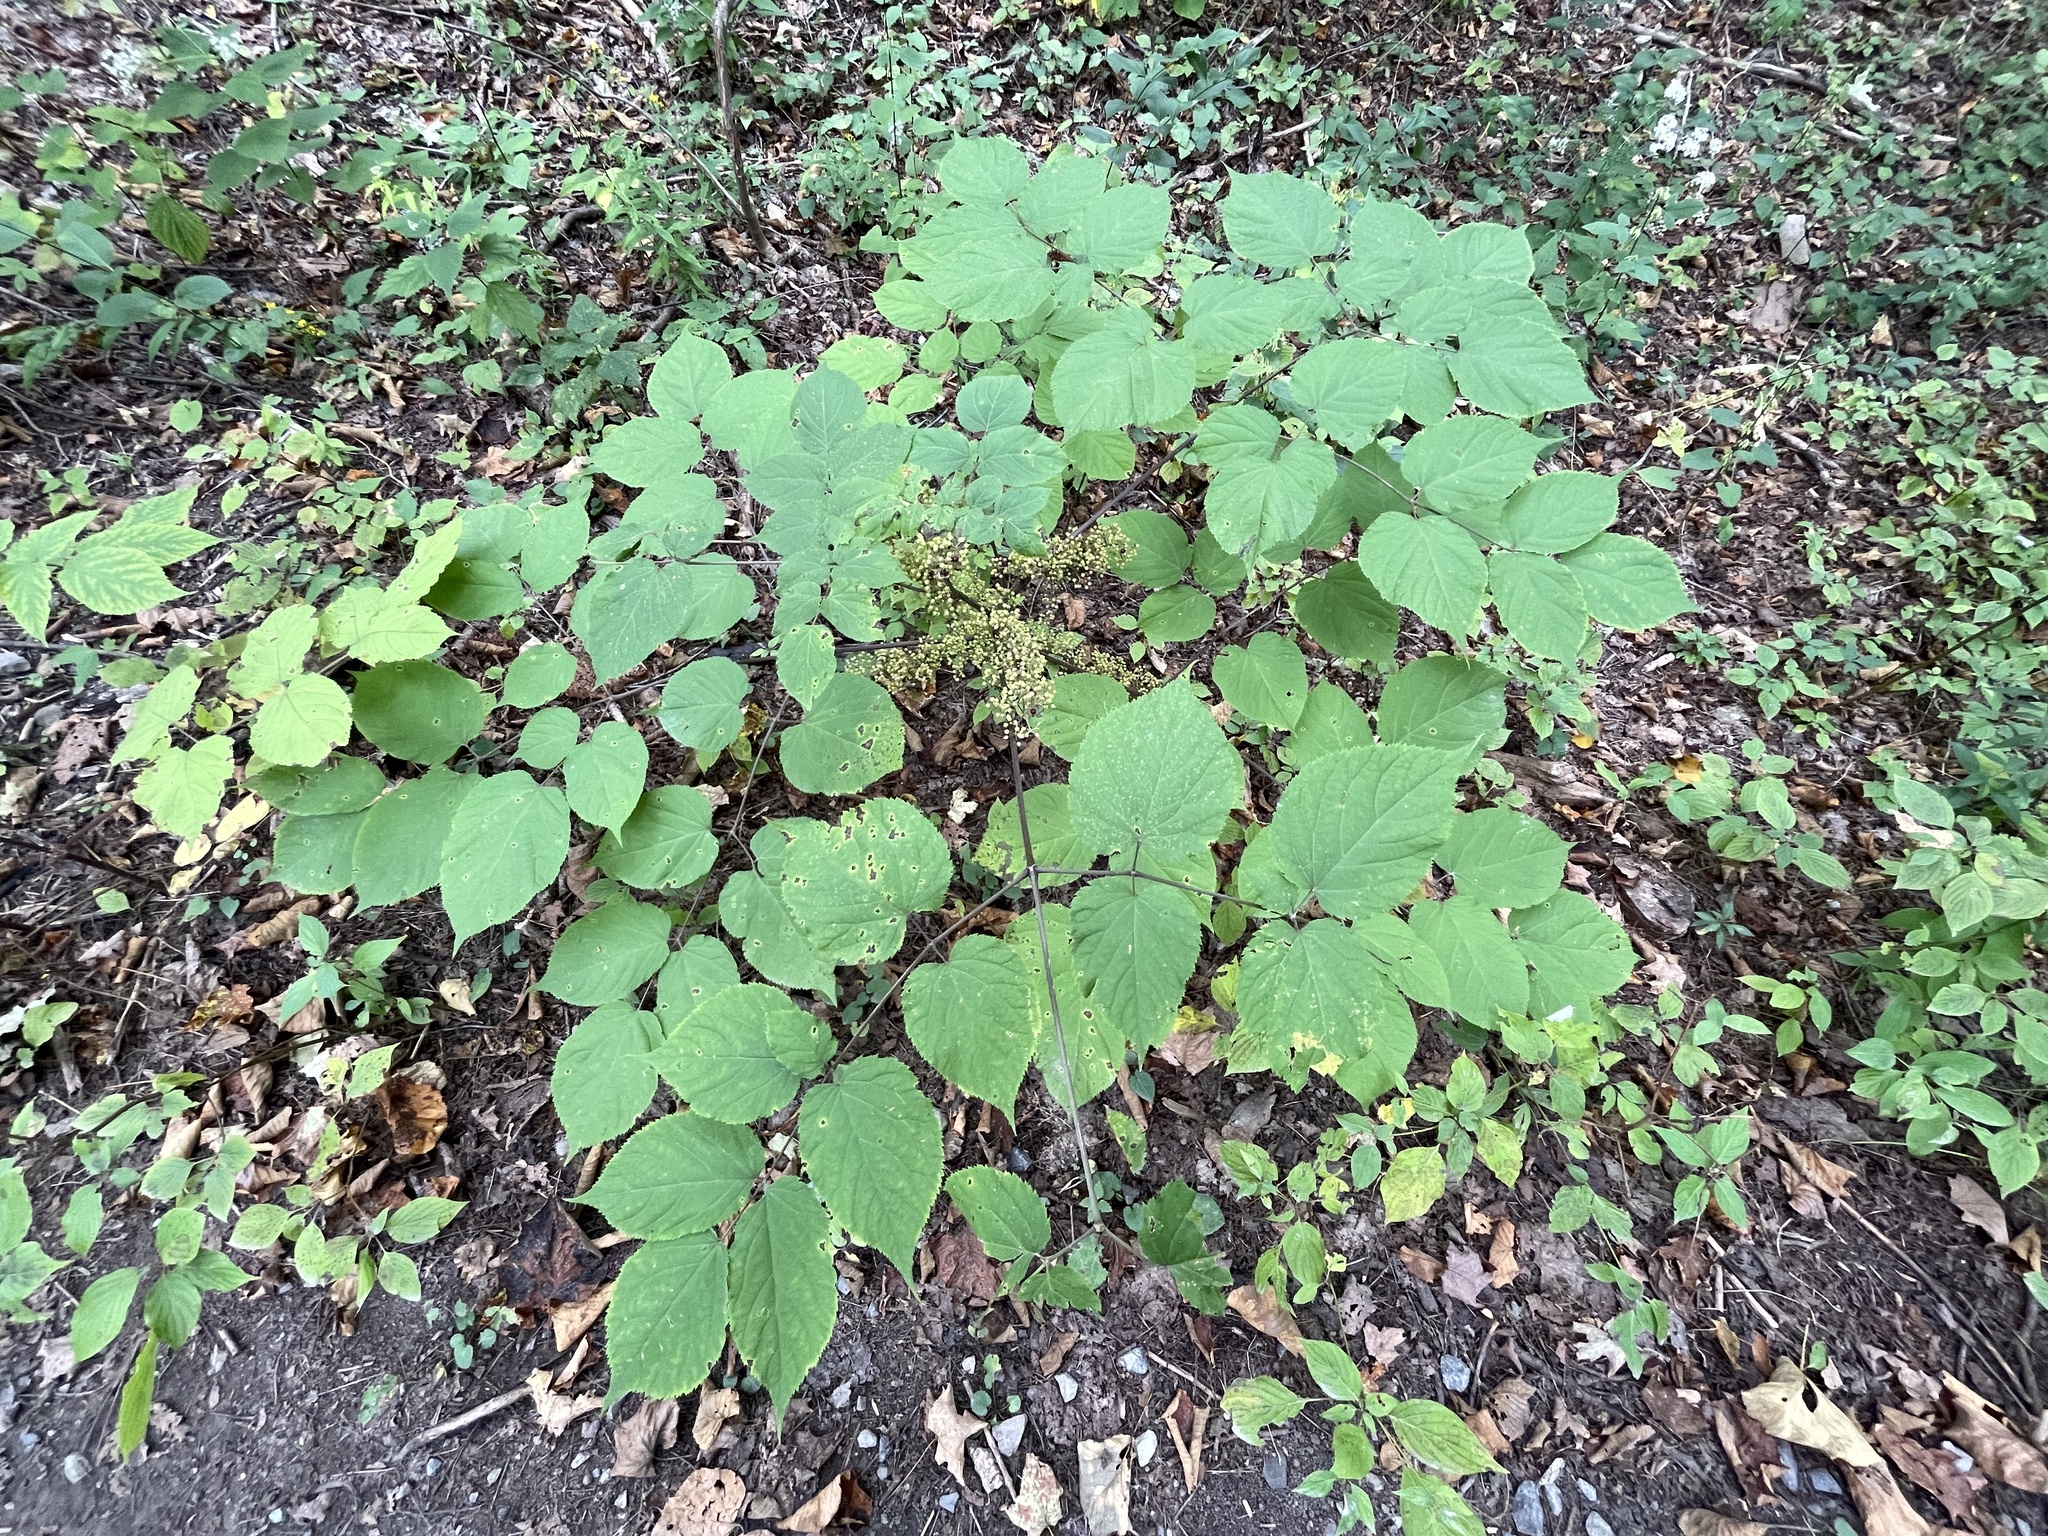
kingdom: Plantae
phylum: Tracheophyta
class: Magnoliopsida
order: Apiales
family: Araliaceae
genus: Aralia
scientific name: Aralia racemosa
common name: American-spikenard
